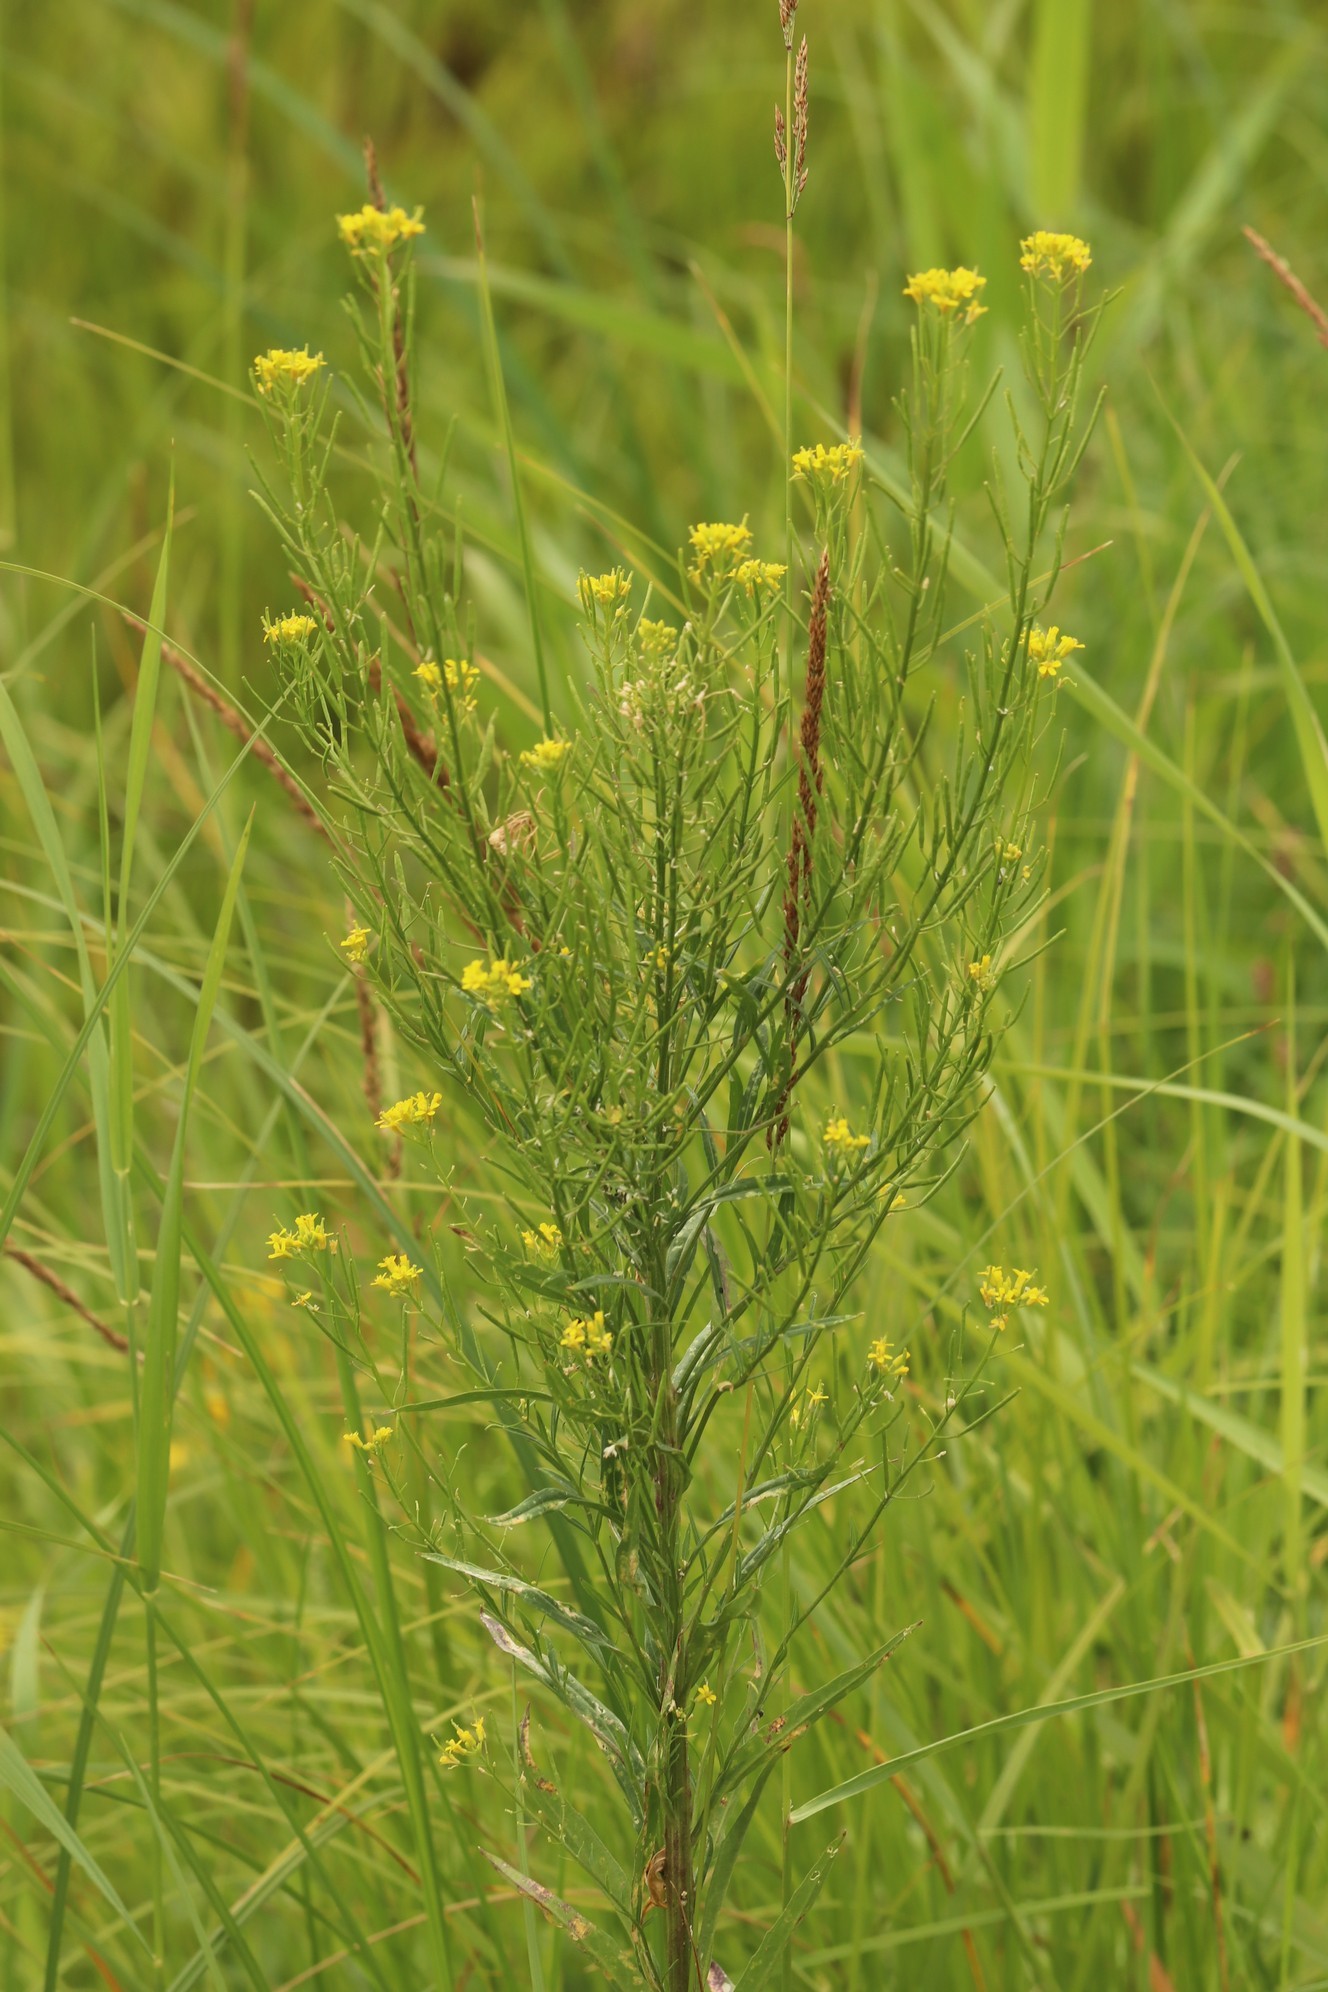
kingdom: Plantae
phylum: Tracheophyta
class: Magnoliopsida
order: Brassicales
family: Brassicaceae
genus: Erysimum
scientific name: Erysimum cheiranthoides
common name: Treacle mustard
